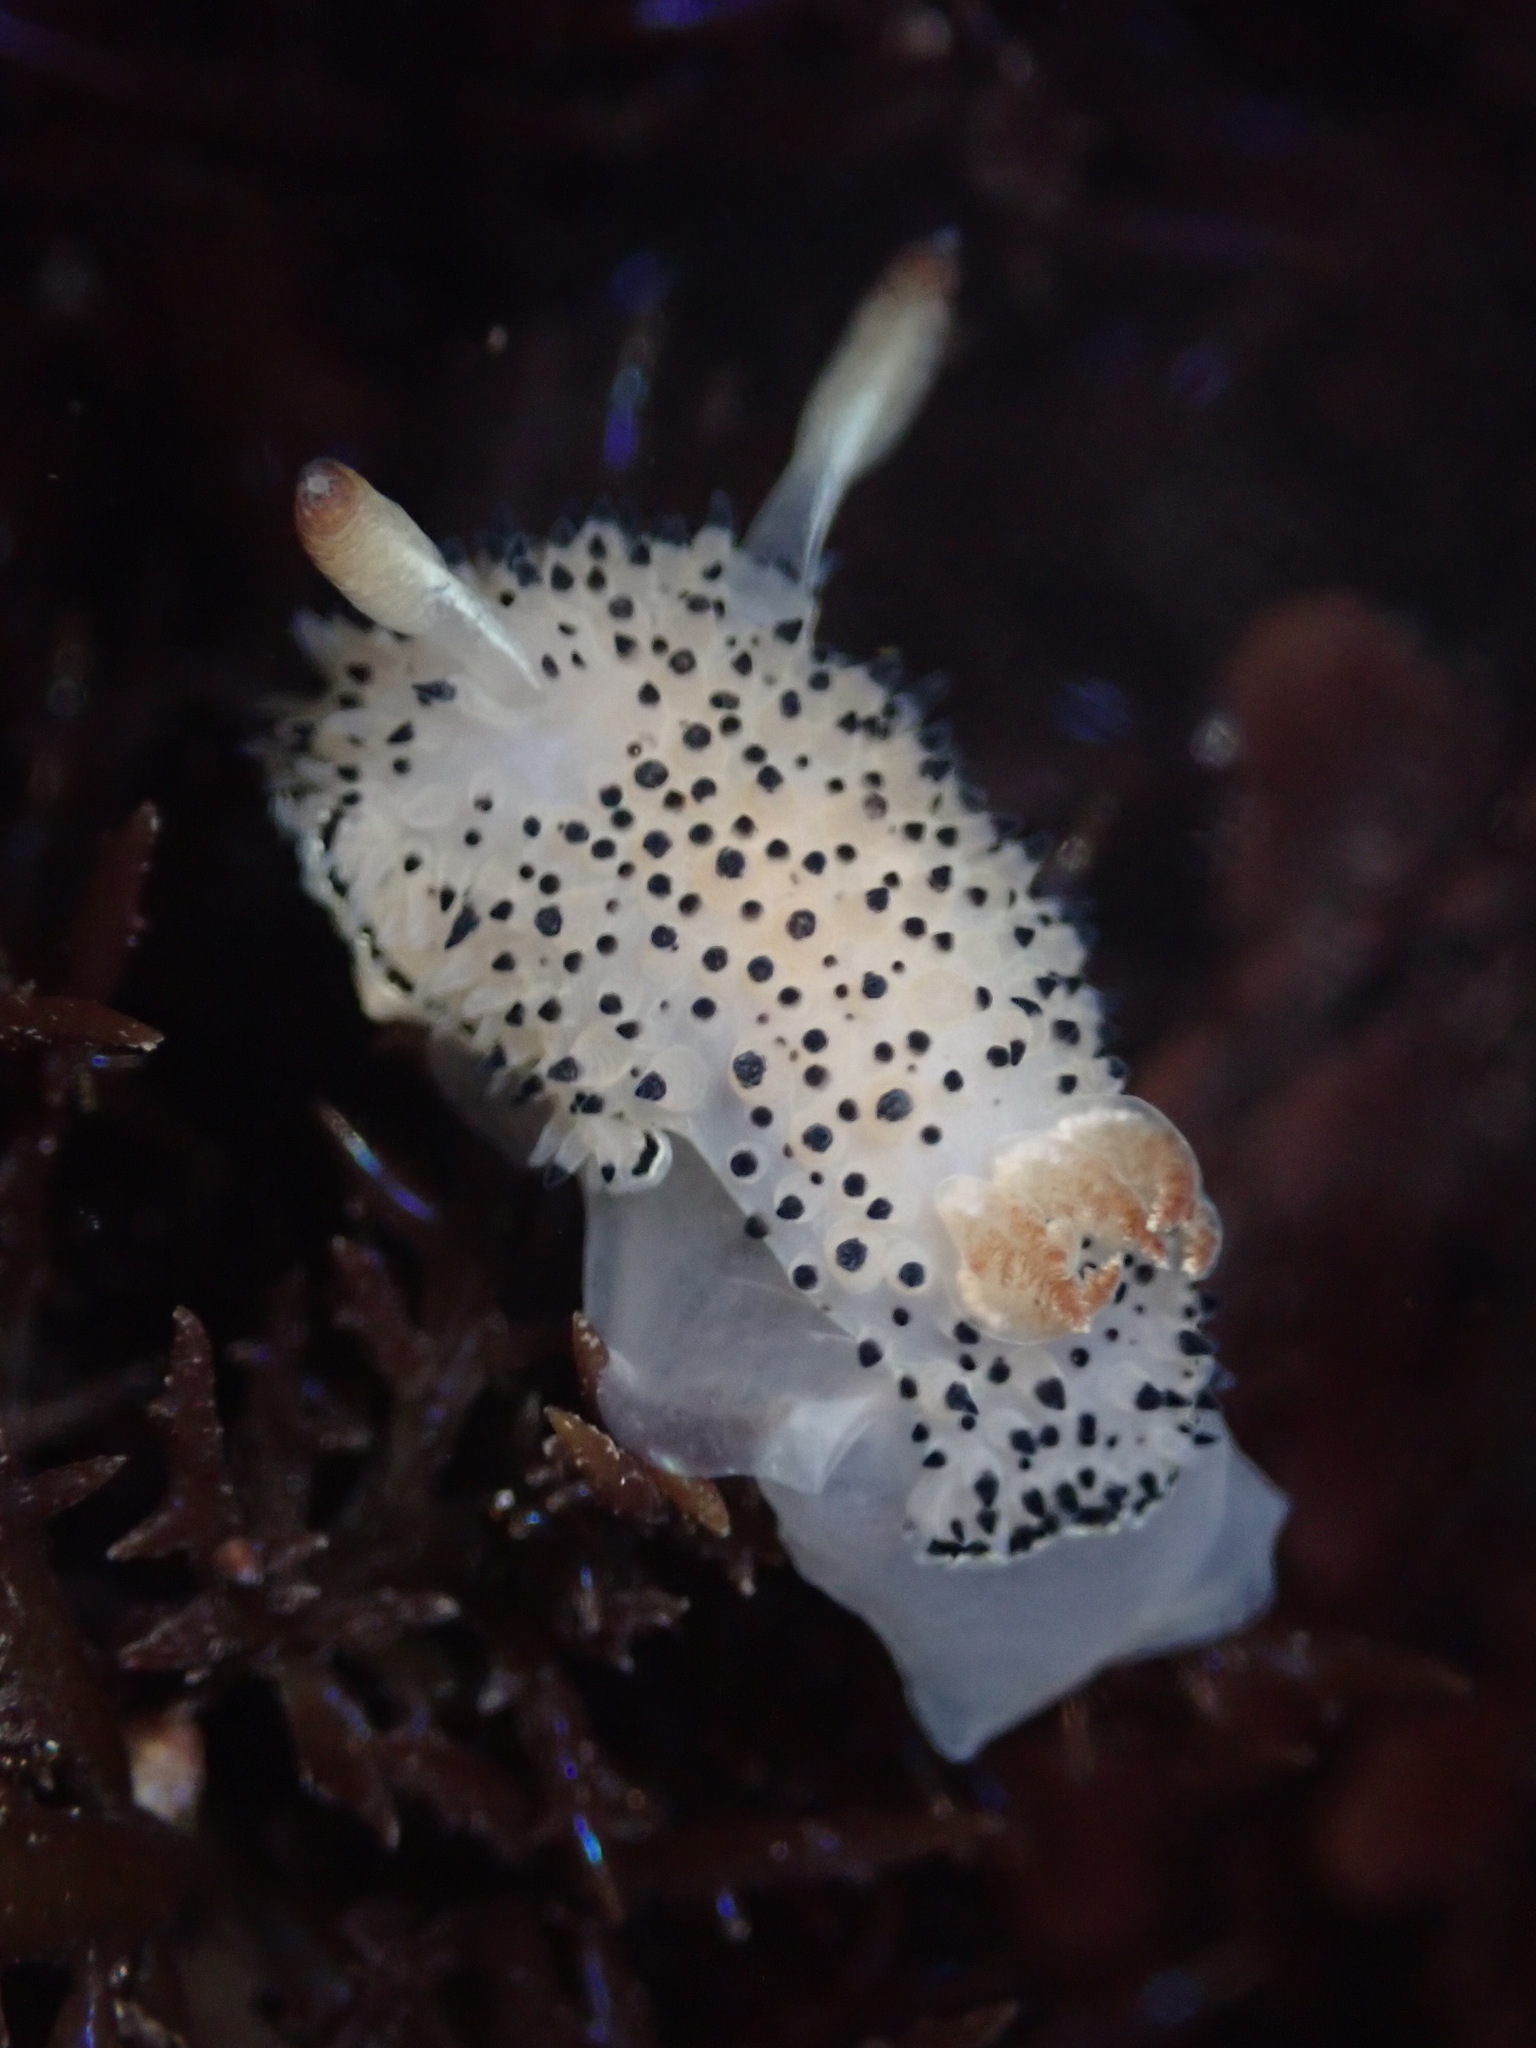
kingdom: Animalia
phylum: Mollusca
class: Gastropoda
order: Nudibranchia
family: Onchidorididae
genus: Acanthodoris
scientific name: Acanthodoris rhodoceras
